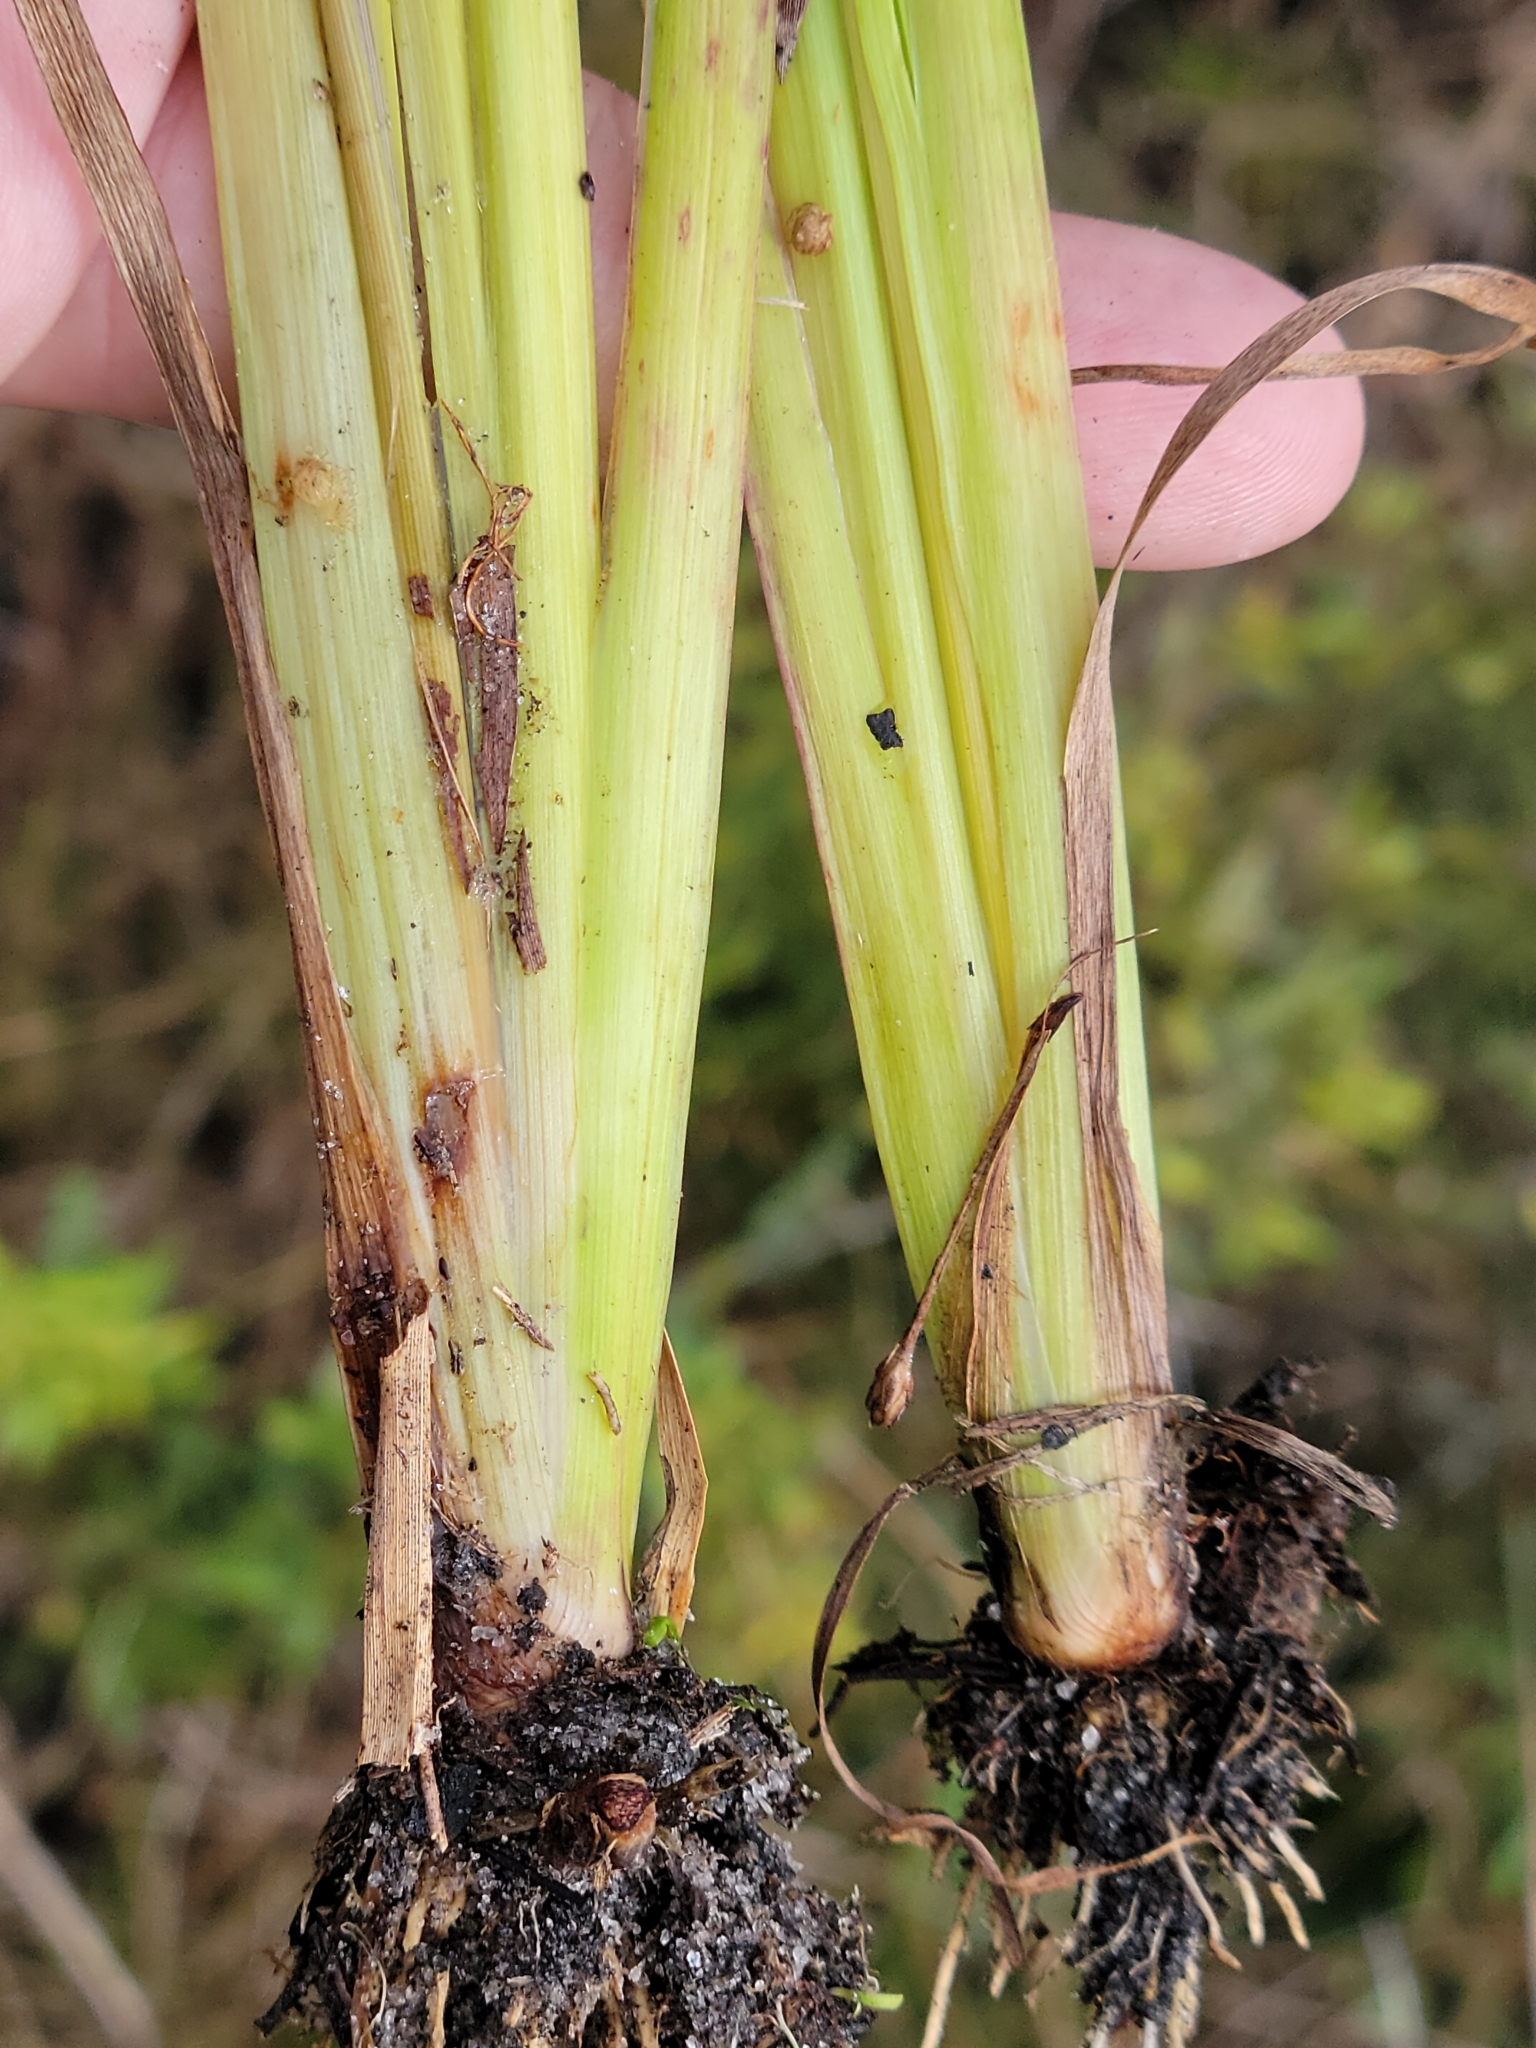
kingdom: Plantae
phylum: Tracheophyta
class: Liliopsida
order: Poales
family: Xyridaceae
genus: Xyris
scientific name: Xyris jupicai
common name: Richard's yelloweyed grass
